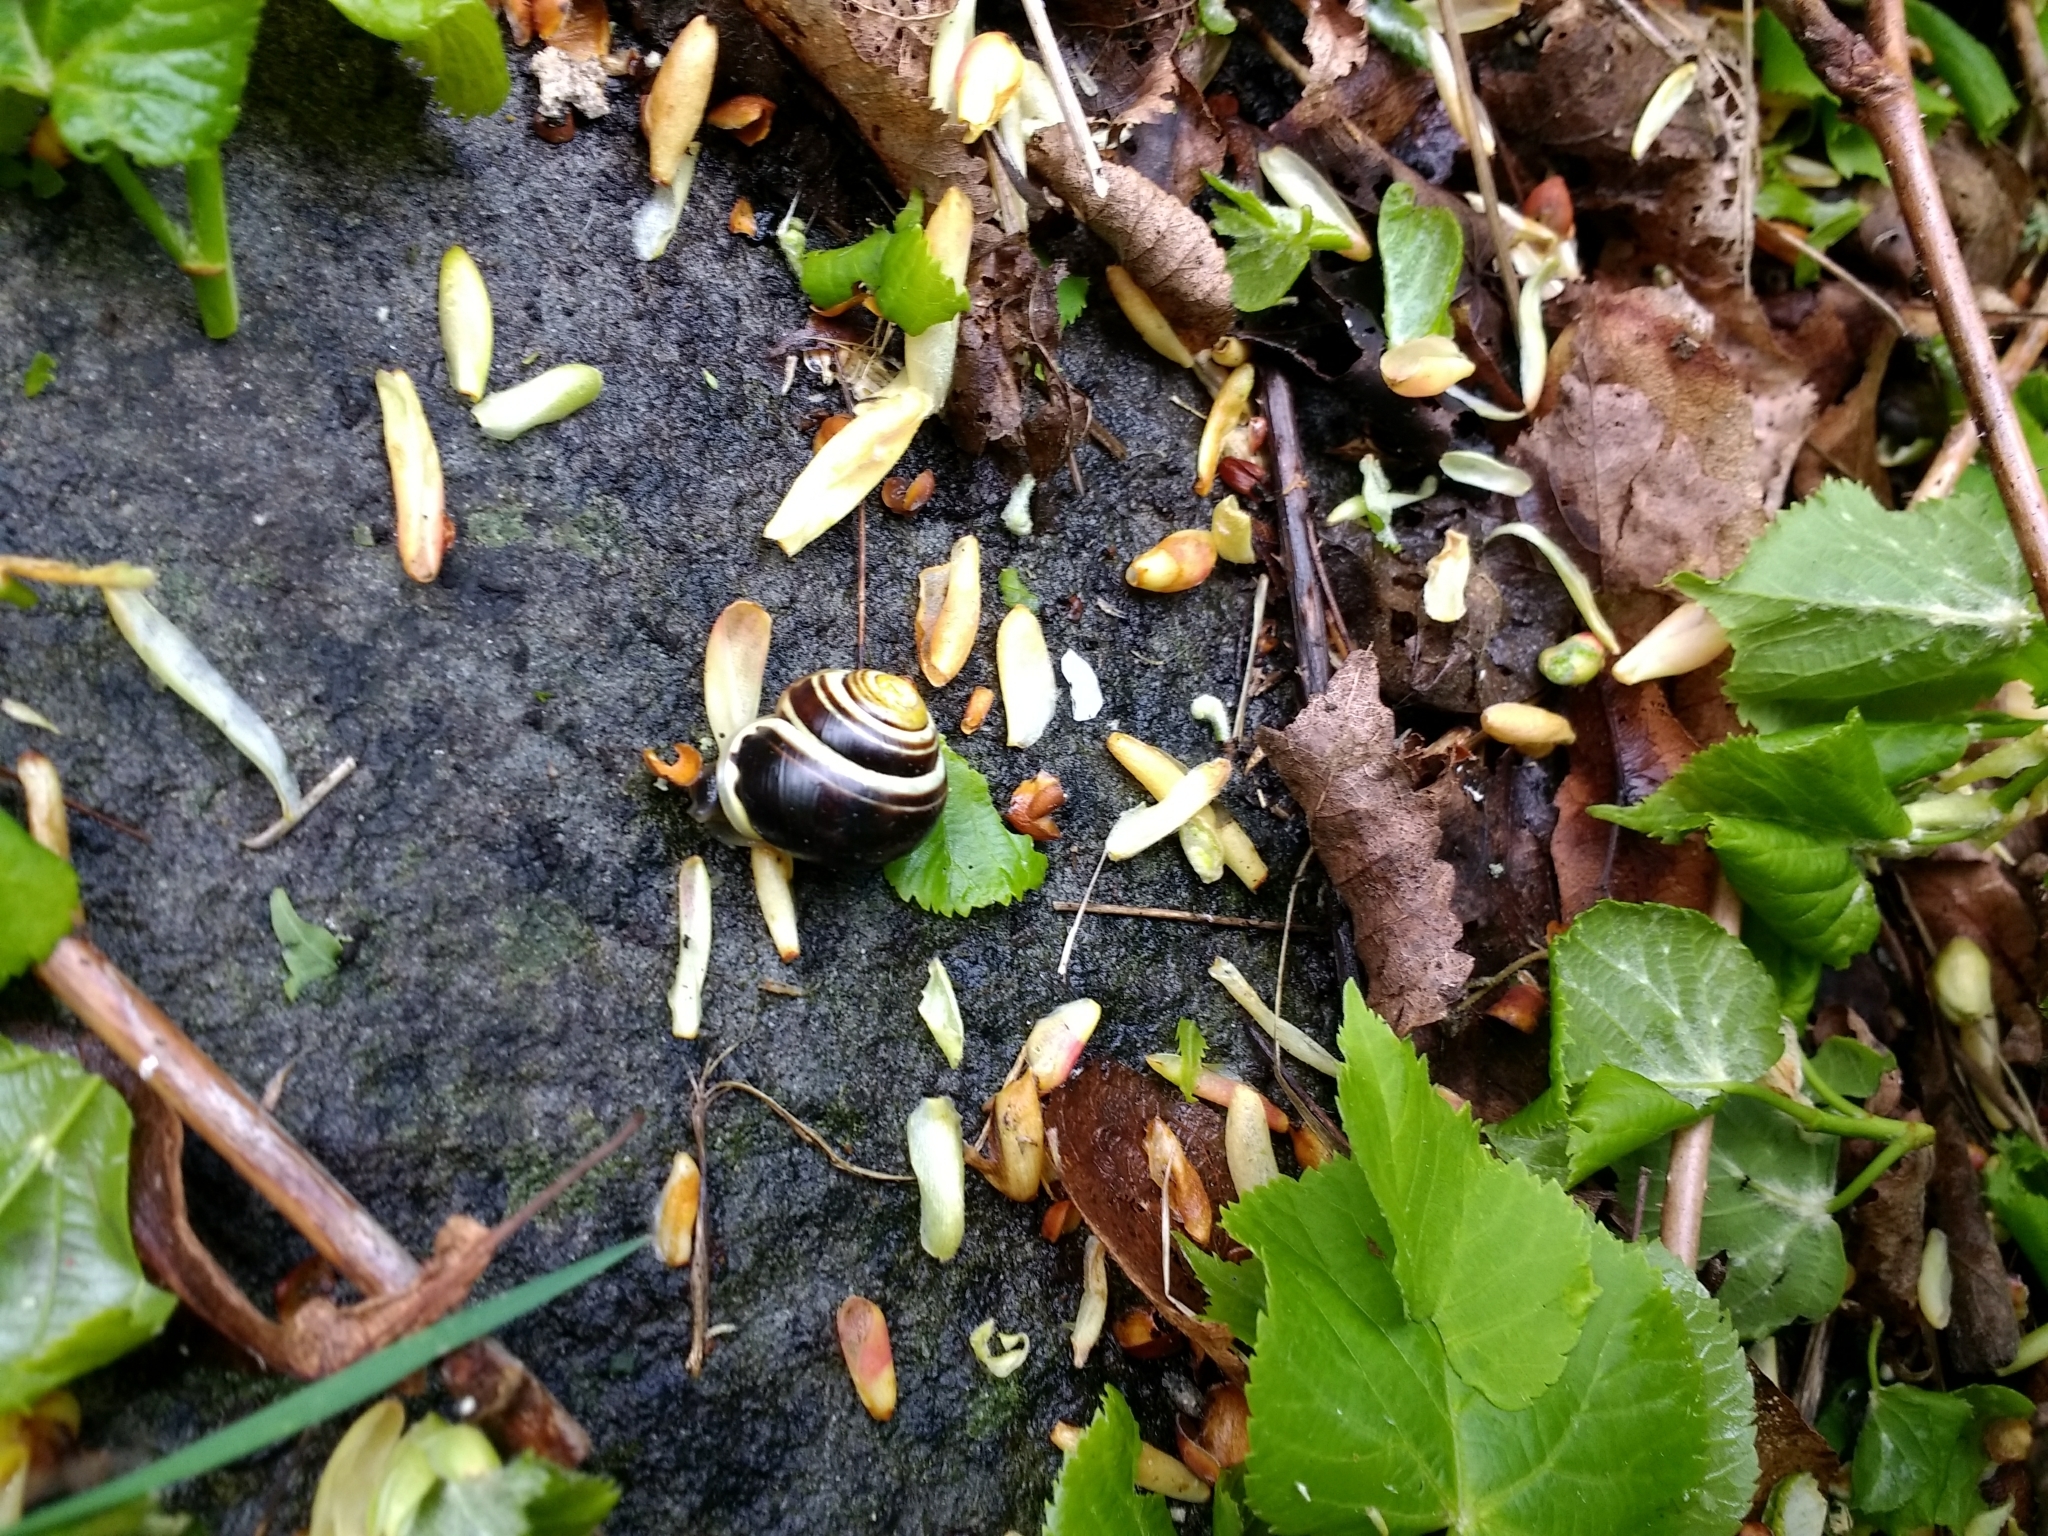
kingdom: Animalia
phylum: Mollusca
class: Gastropoda
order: Stylommatophora
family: Helicidae
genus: Cepaea
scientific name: Cepaea hortensis
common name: White-lip gardensnail
